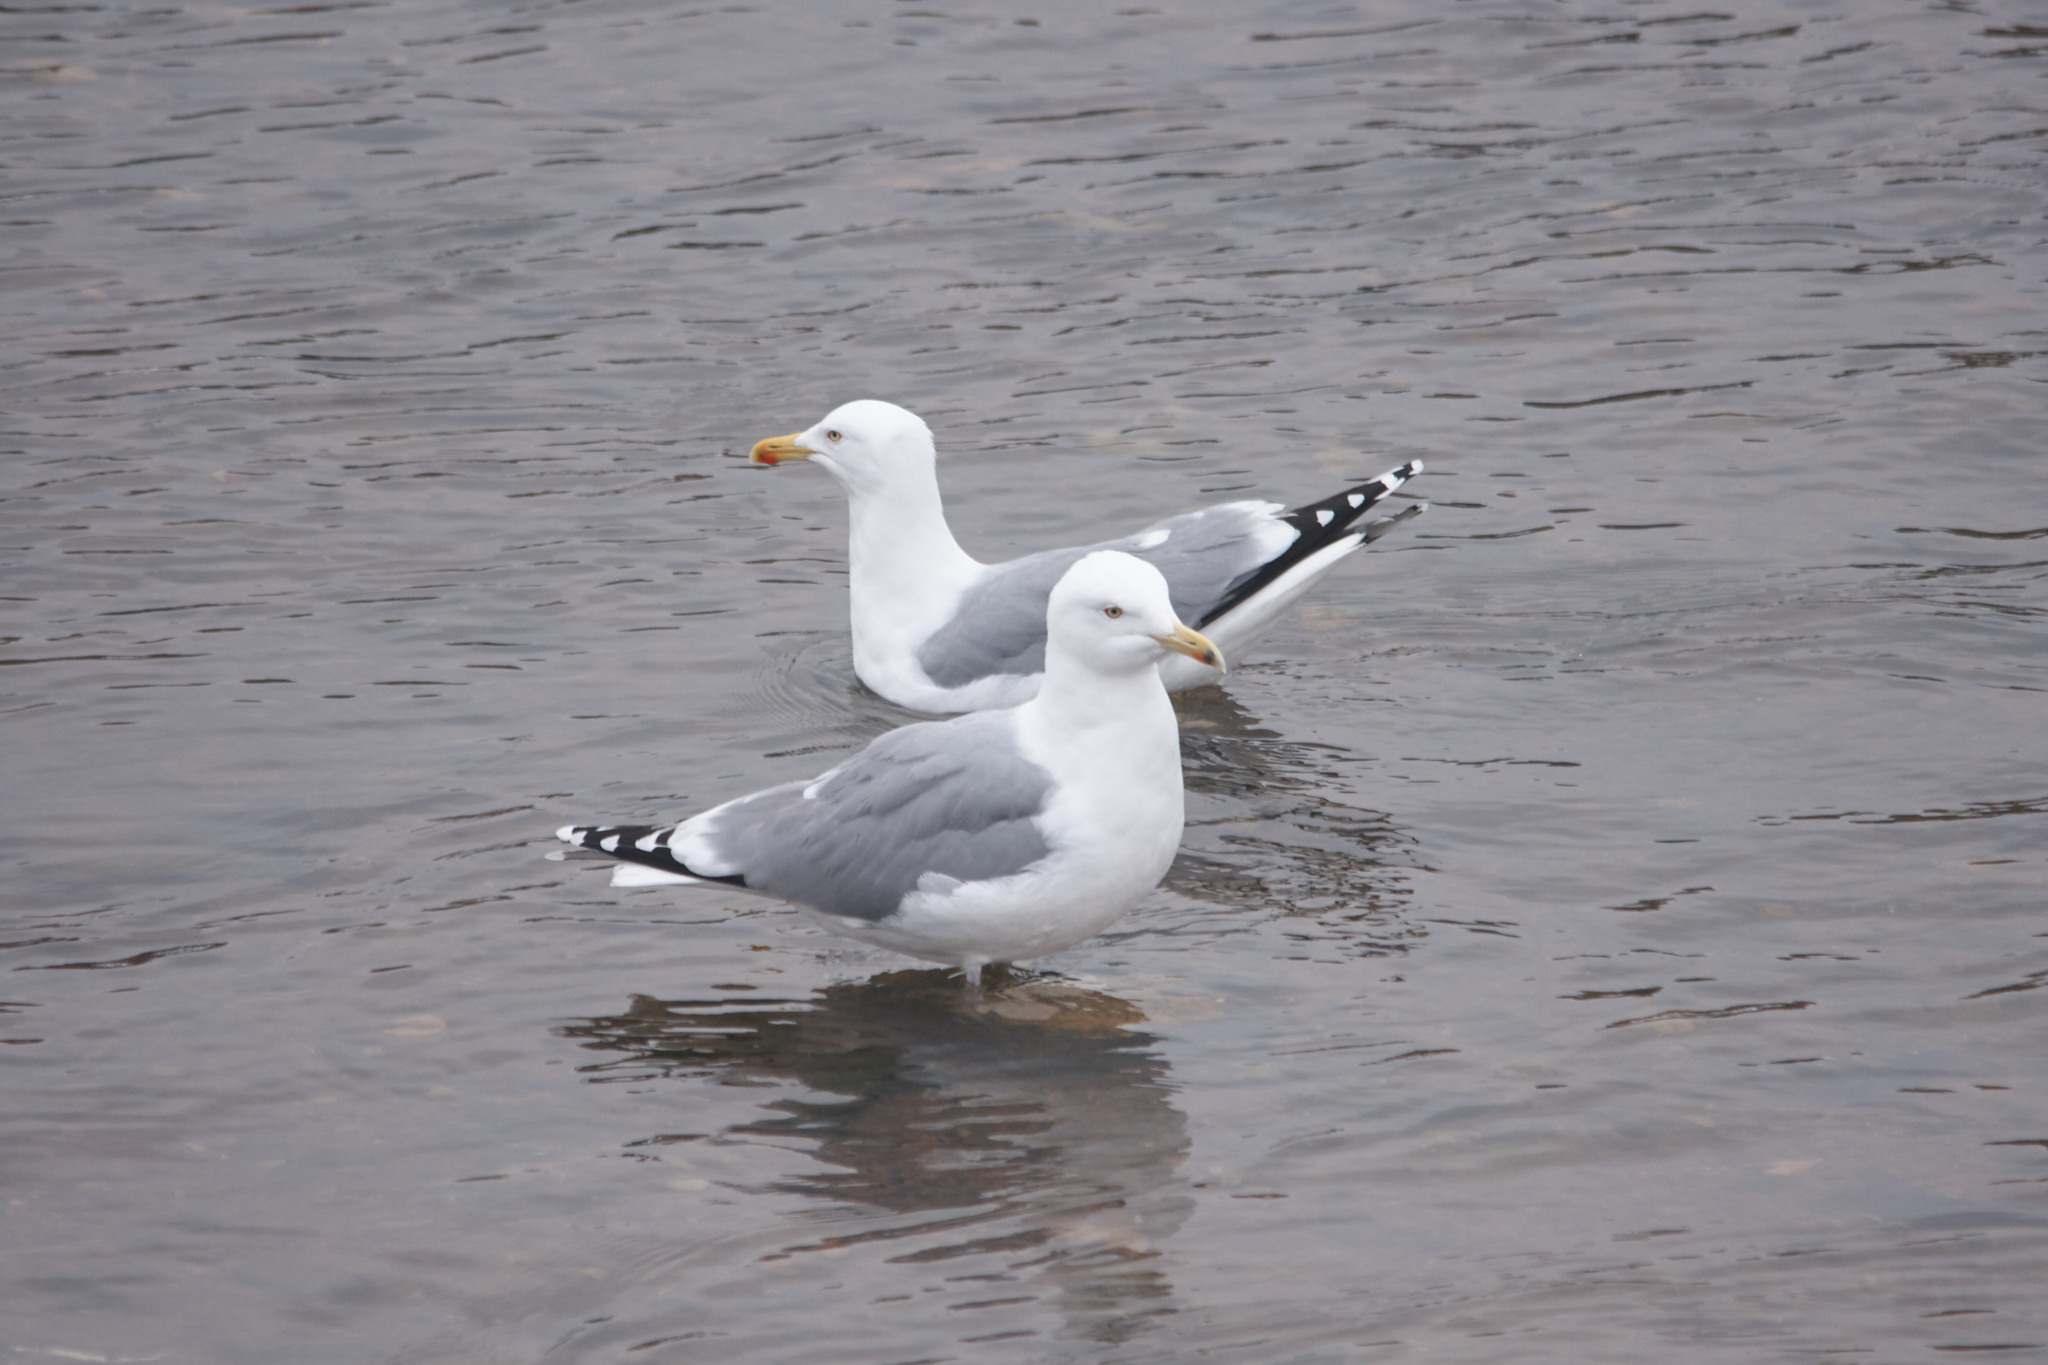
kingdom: Animalia
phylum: Chordata
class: Aves
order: Charadriiformes
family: Laridae
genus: Larus
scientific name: Larus argentatus
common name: Herring gull
